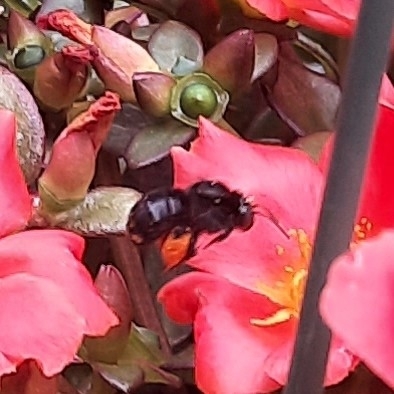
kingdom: Animalia
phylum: Arthropoda
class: Insecta
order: Hymenoptera
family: Apidae
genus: Melissodes
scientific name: Melissodes bimaculatus
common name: Two-spotted long-horned bee
